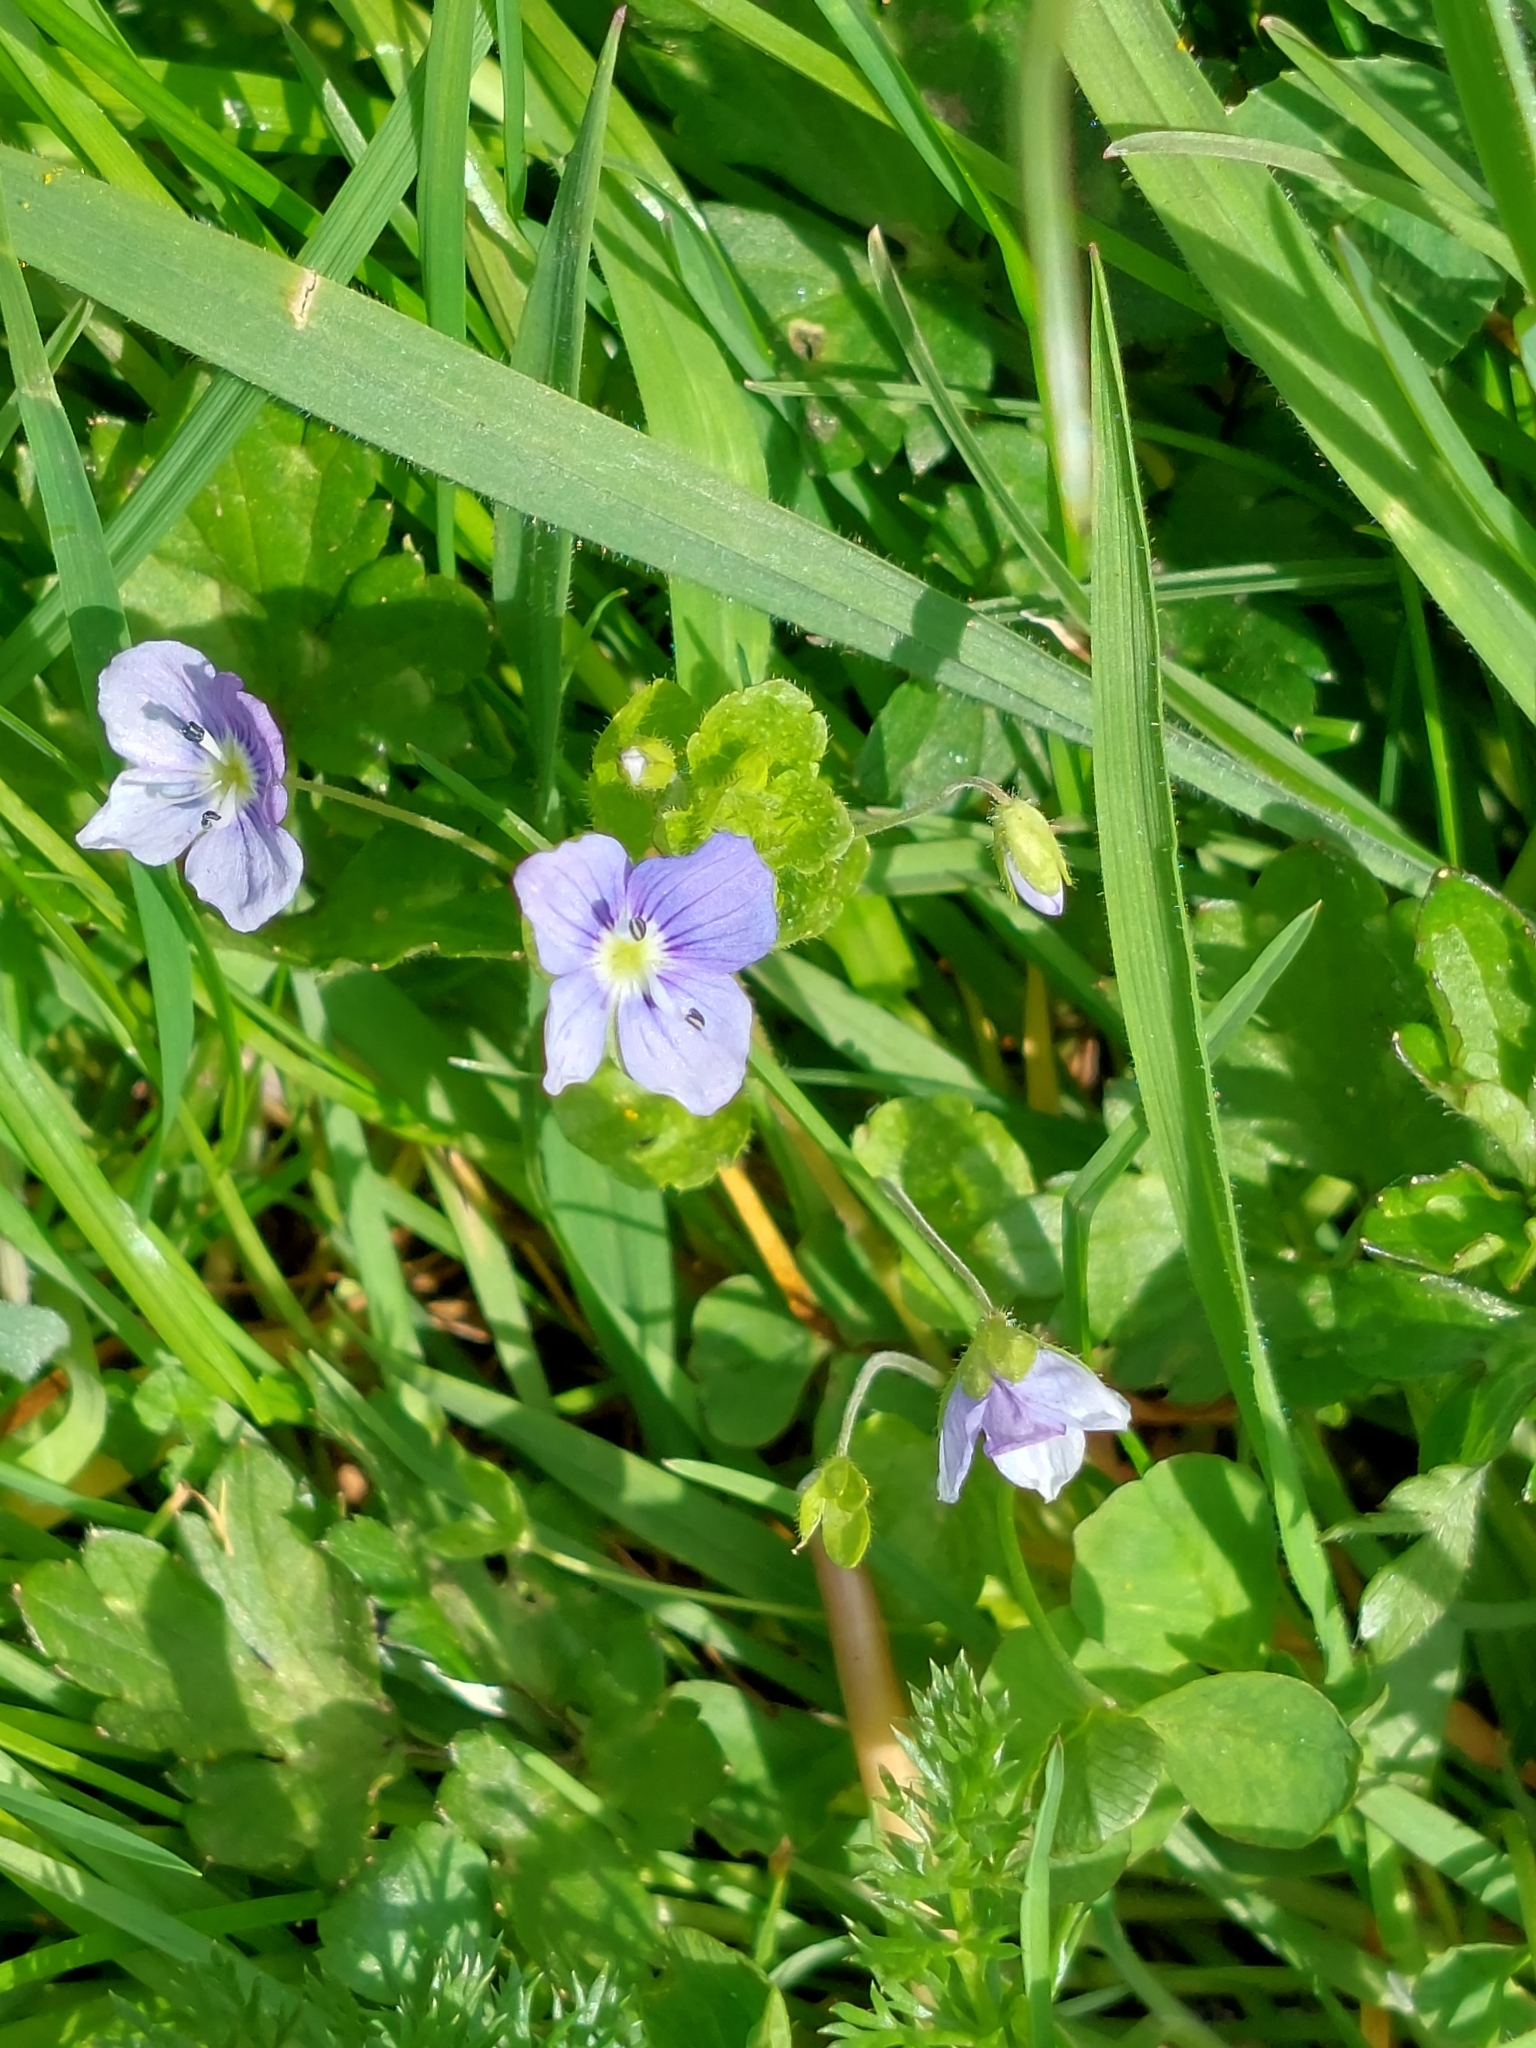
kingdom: Plantae
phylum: Tracheophyta
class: Magnoliopsida
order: Lamiales
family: Plantaginaceae
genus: Veronica
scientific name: Veronica filiformis
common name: Slender speedwell
